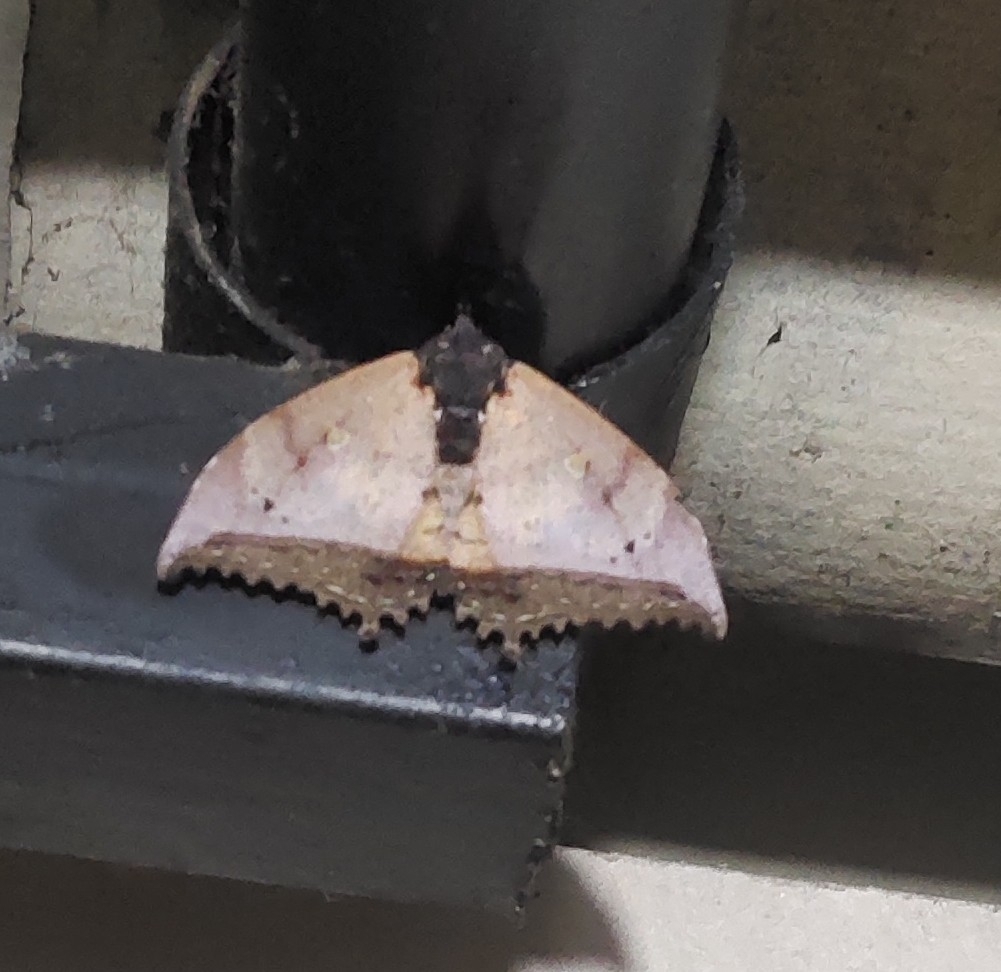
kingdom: Animalia
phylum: Arthropoda
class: Insecta
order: Lepidoptera
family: Erebidae
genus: Pterocyclophora
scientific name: Pterocyclophora pictimargo
